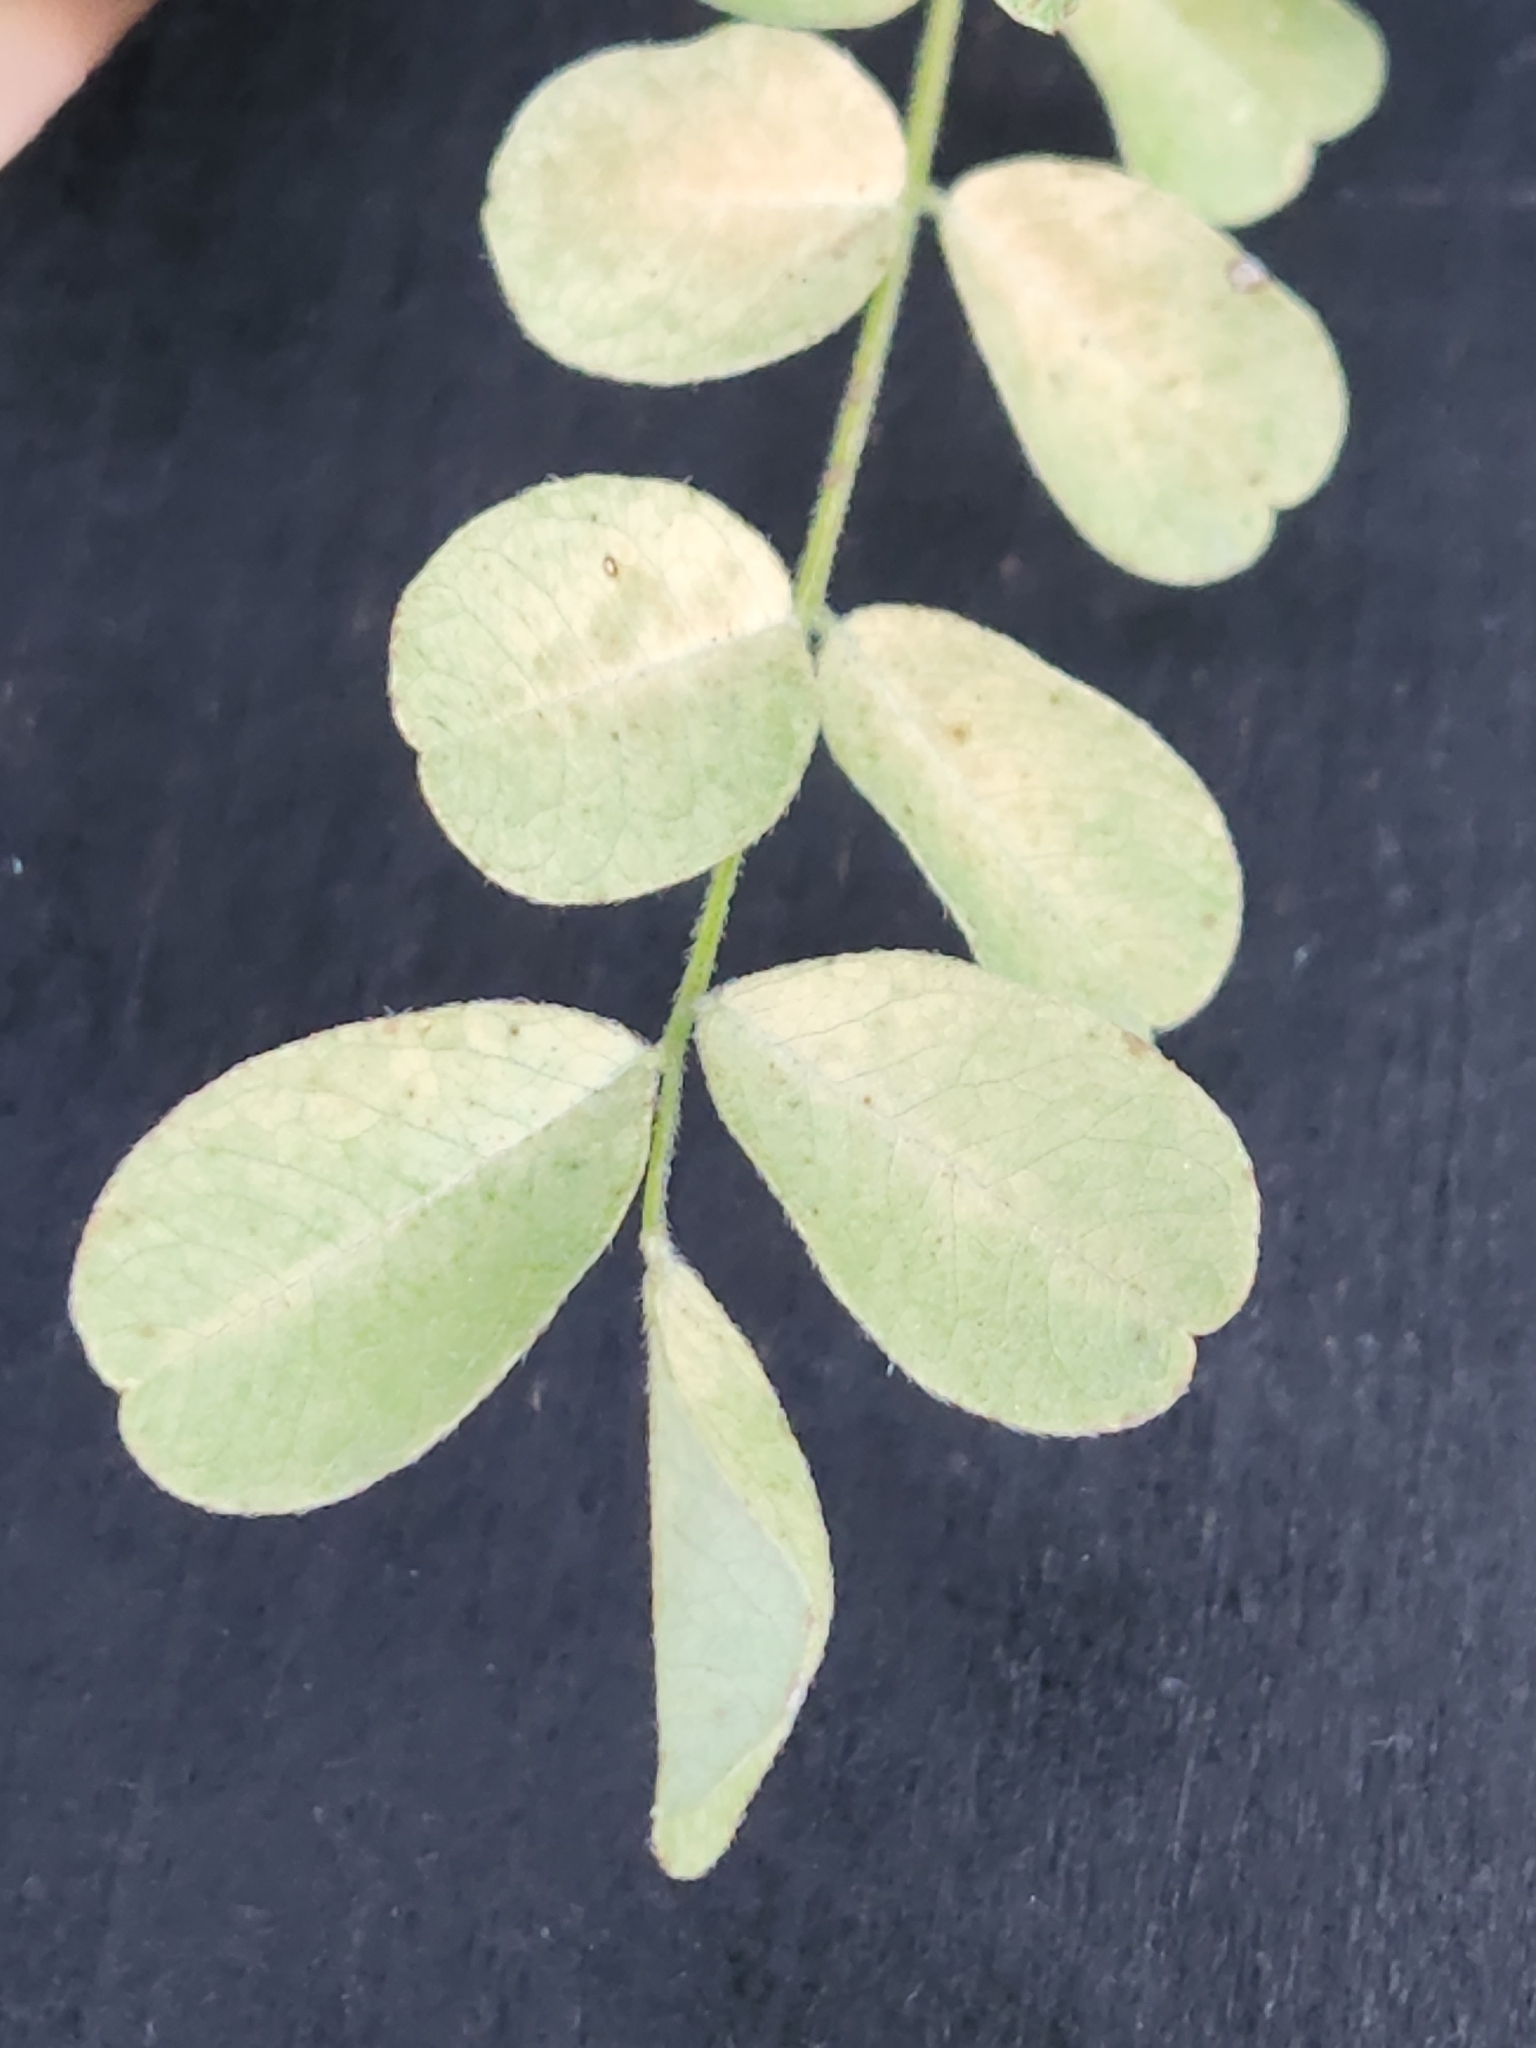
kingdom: Plantae
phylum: Tracheophyta
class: Magnoliopsida
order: Fabales
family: Fabaceae
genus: Styphnolobium
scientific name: Styphnolobium affine
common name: Texas sophora
